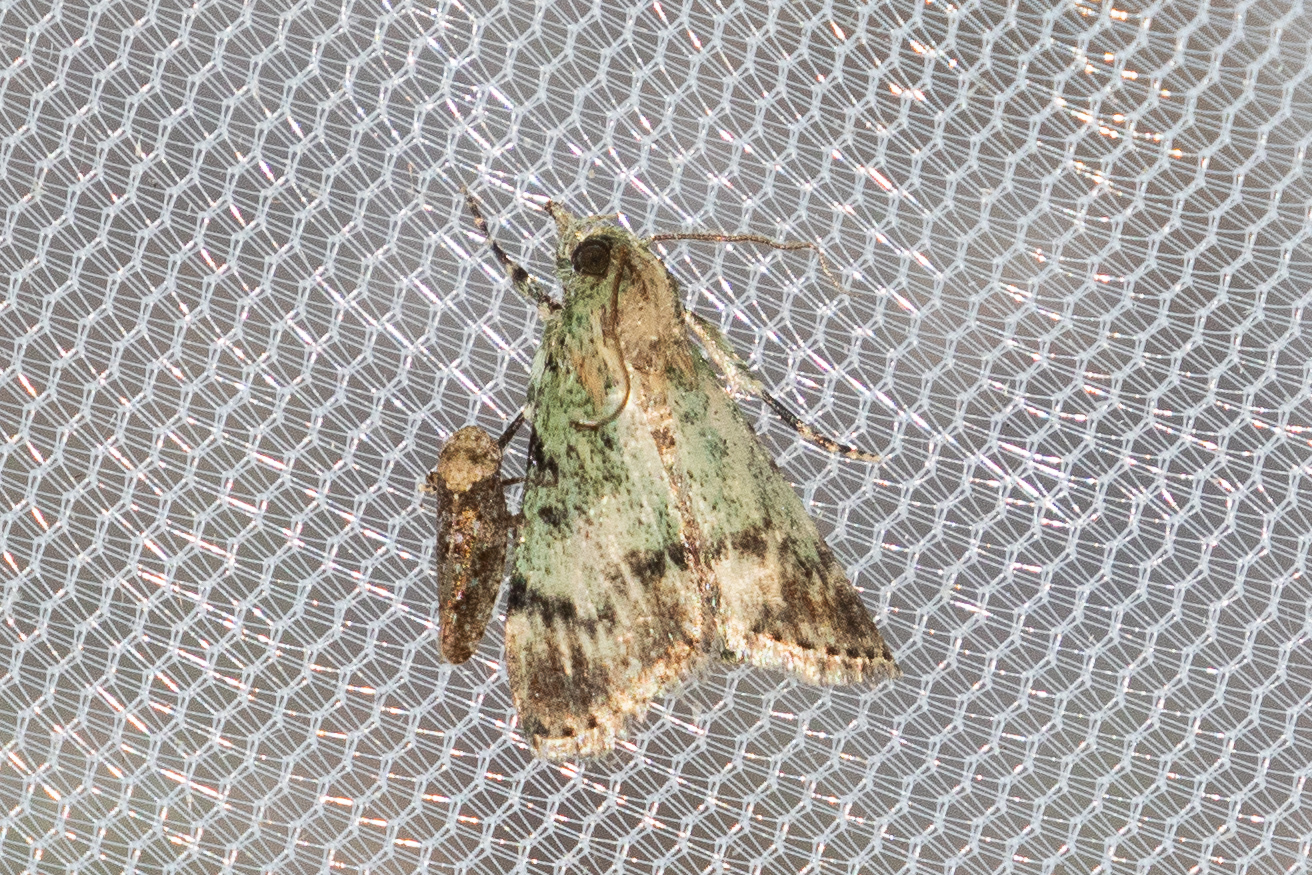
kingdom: Animalia
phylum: Arthropoda
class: Insecta
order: Lepidoptera
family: Pyralidae
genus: Epipaschia
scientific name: Epipaschia superatalis
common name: Dimorphic macalla moth
